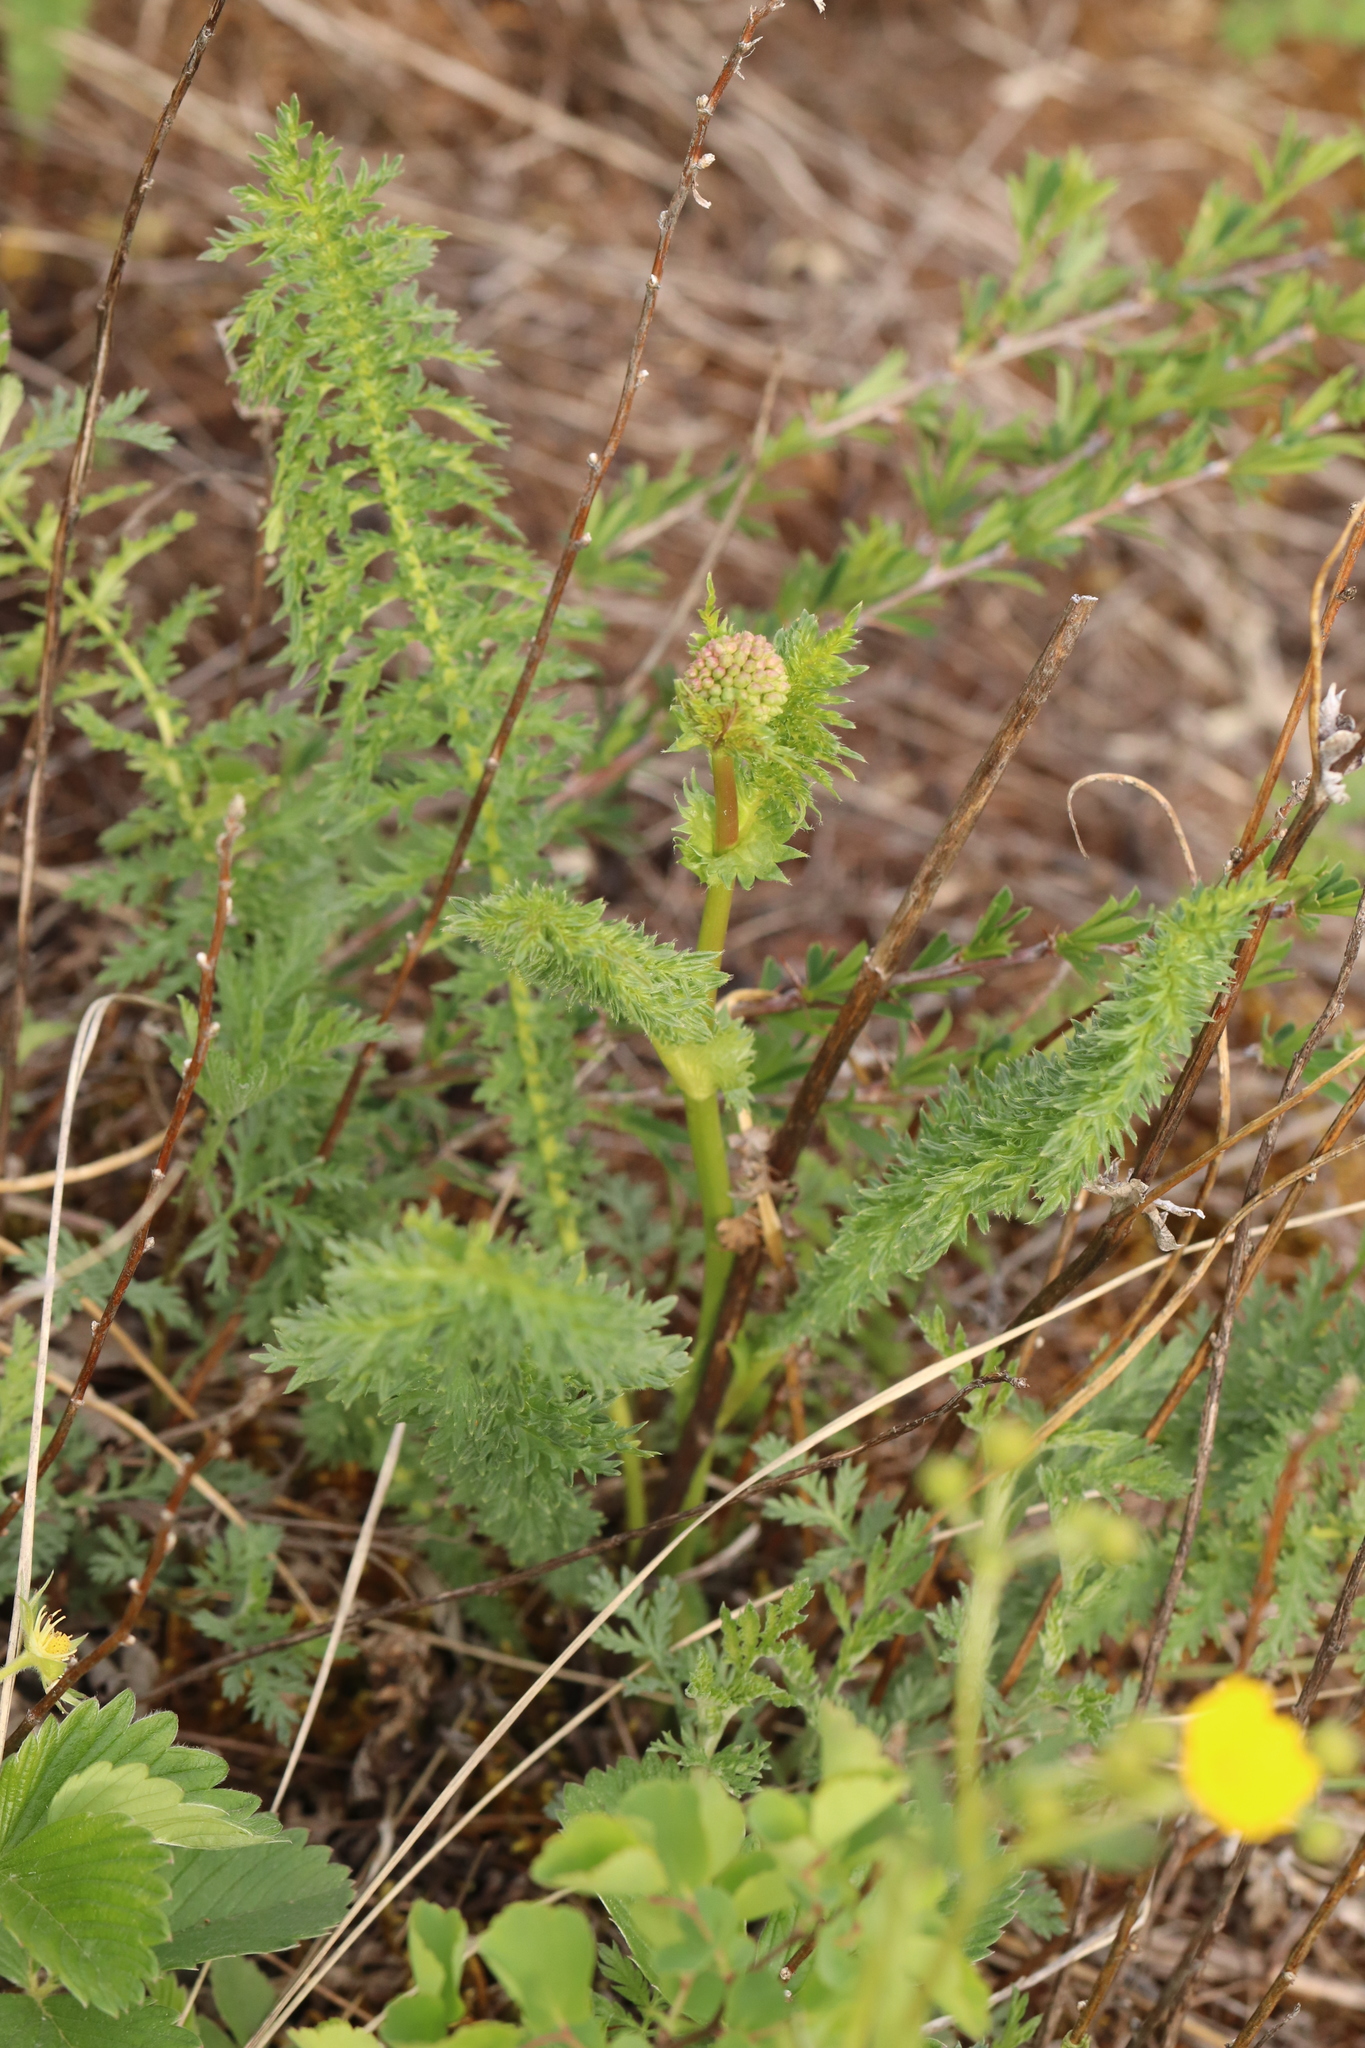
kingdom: Plantae
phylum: Tracheophyta
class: Magnoliopsida
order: Rosales
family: Rosaceae
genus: Filipendula
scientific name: Filipendula vulgaris
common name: Dropwort
